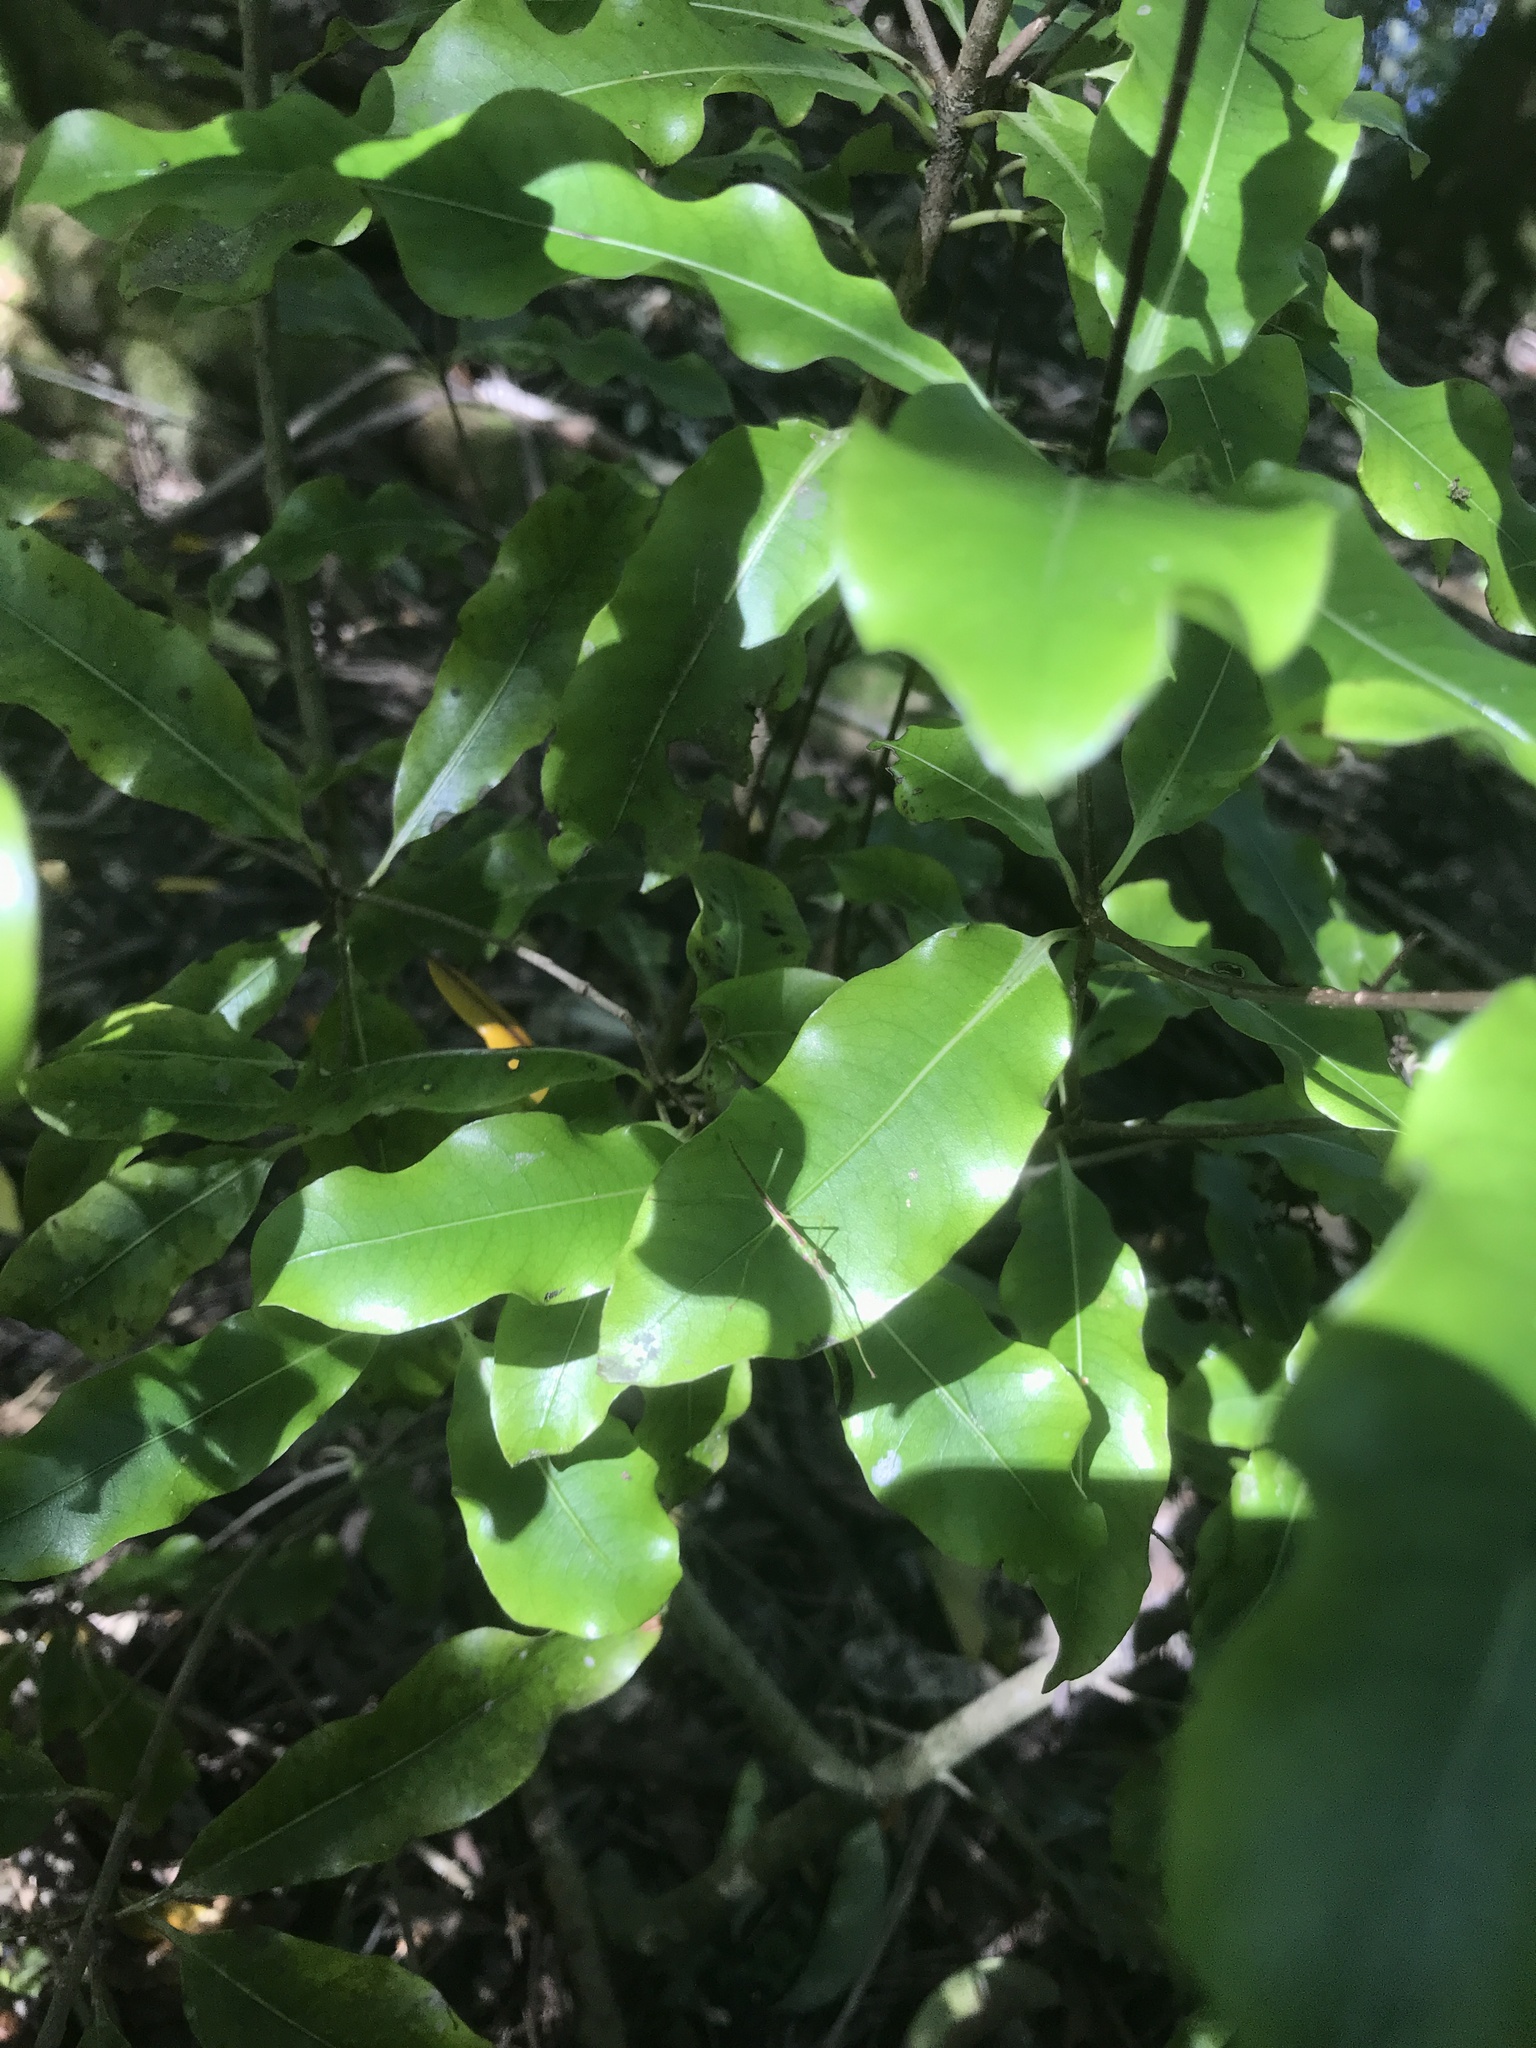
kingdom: Plantae
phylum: Tracheophyta
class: Magnoliopsida
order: Apiales
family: Pittosporaceae
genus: Pittosporum
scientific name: Pittosporum eugenioides
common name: Lemonwood
